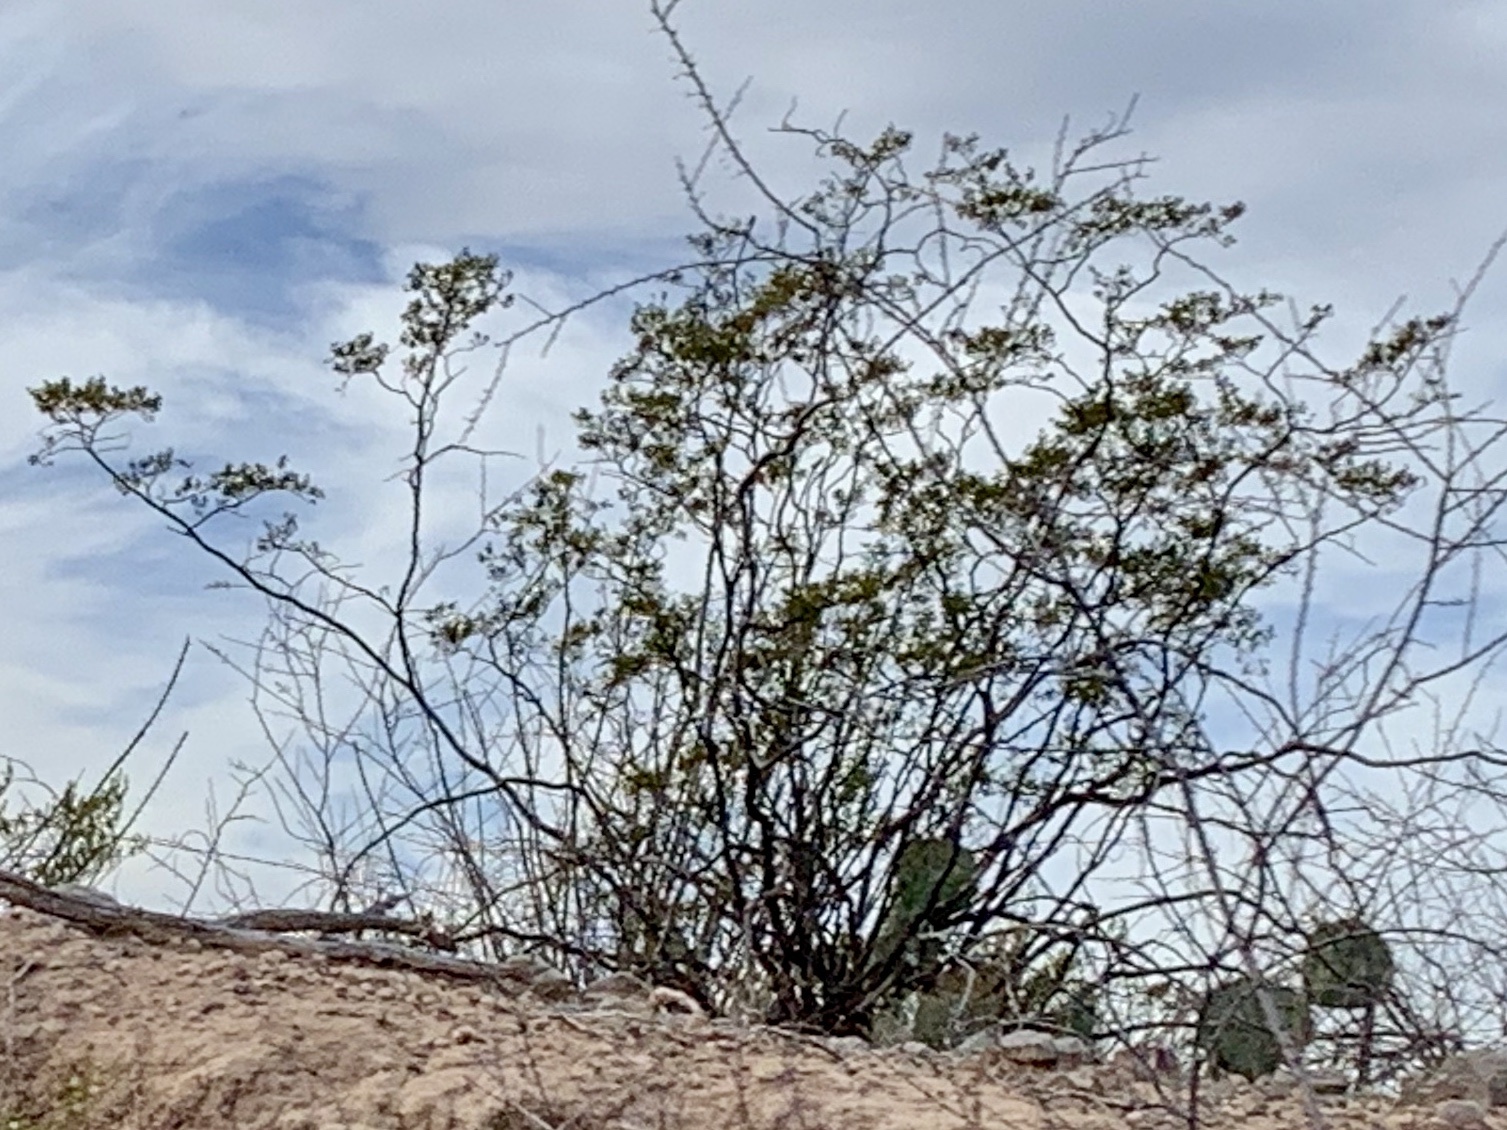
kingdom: Plantae
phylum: Tracheophyta
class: Magnoliopsida
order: Zygophyllales
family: Zygophyllaceae
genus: Larrea
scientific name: Larrea tridentata
